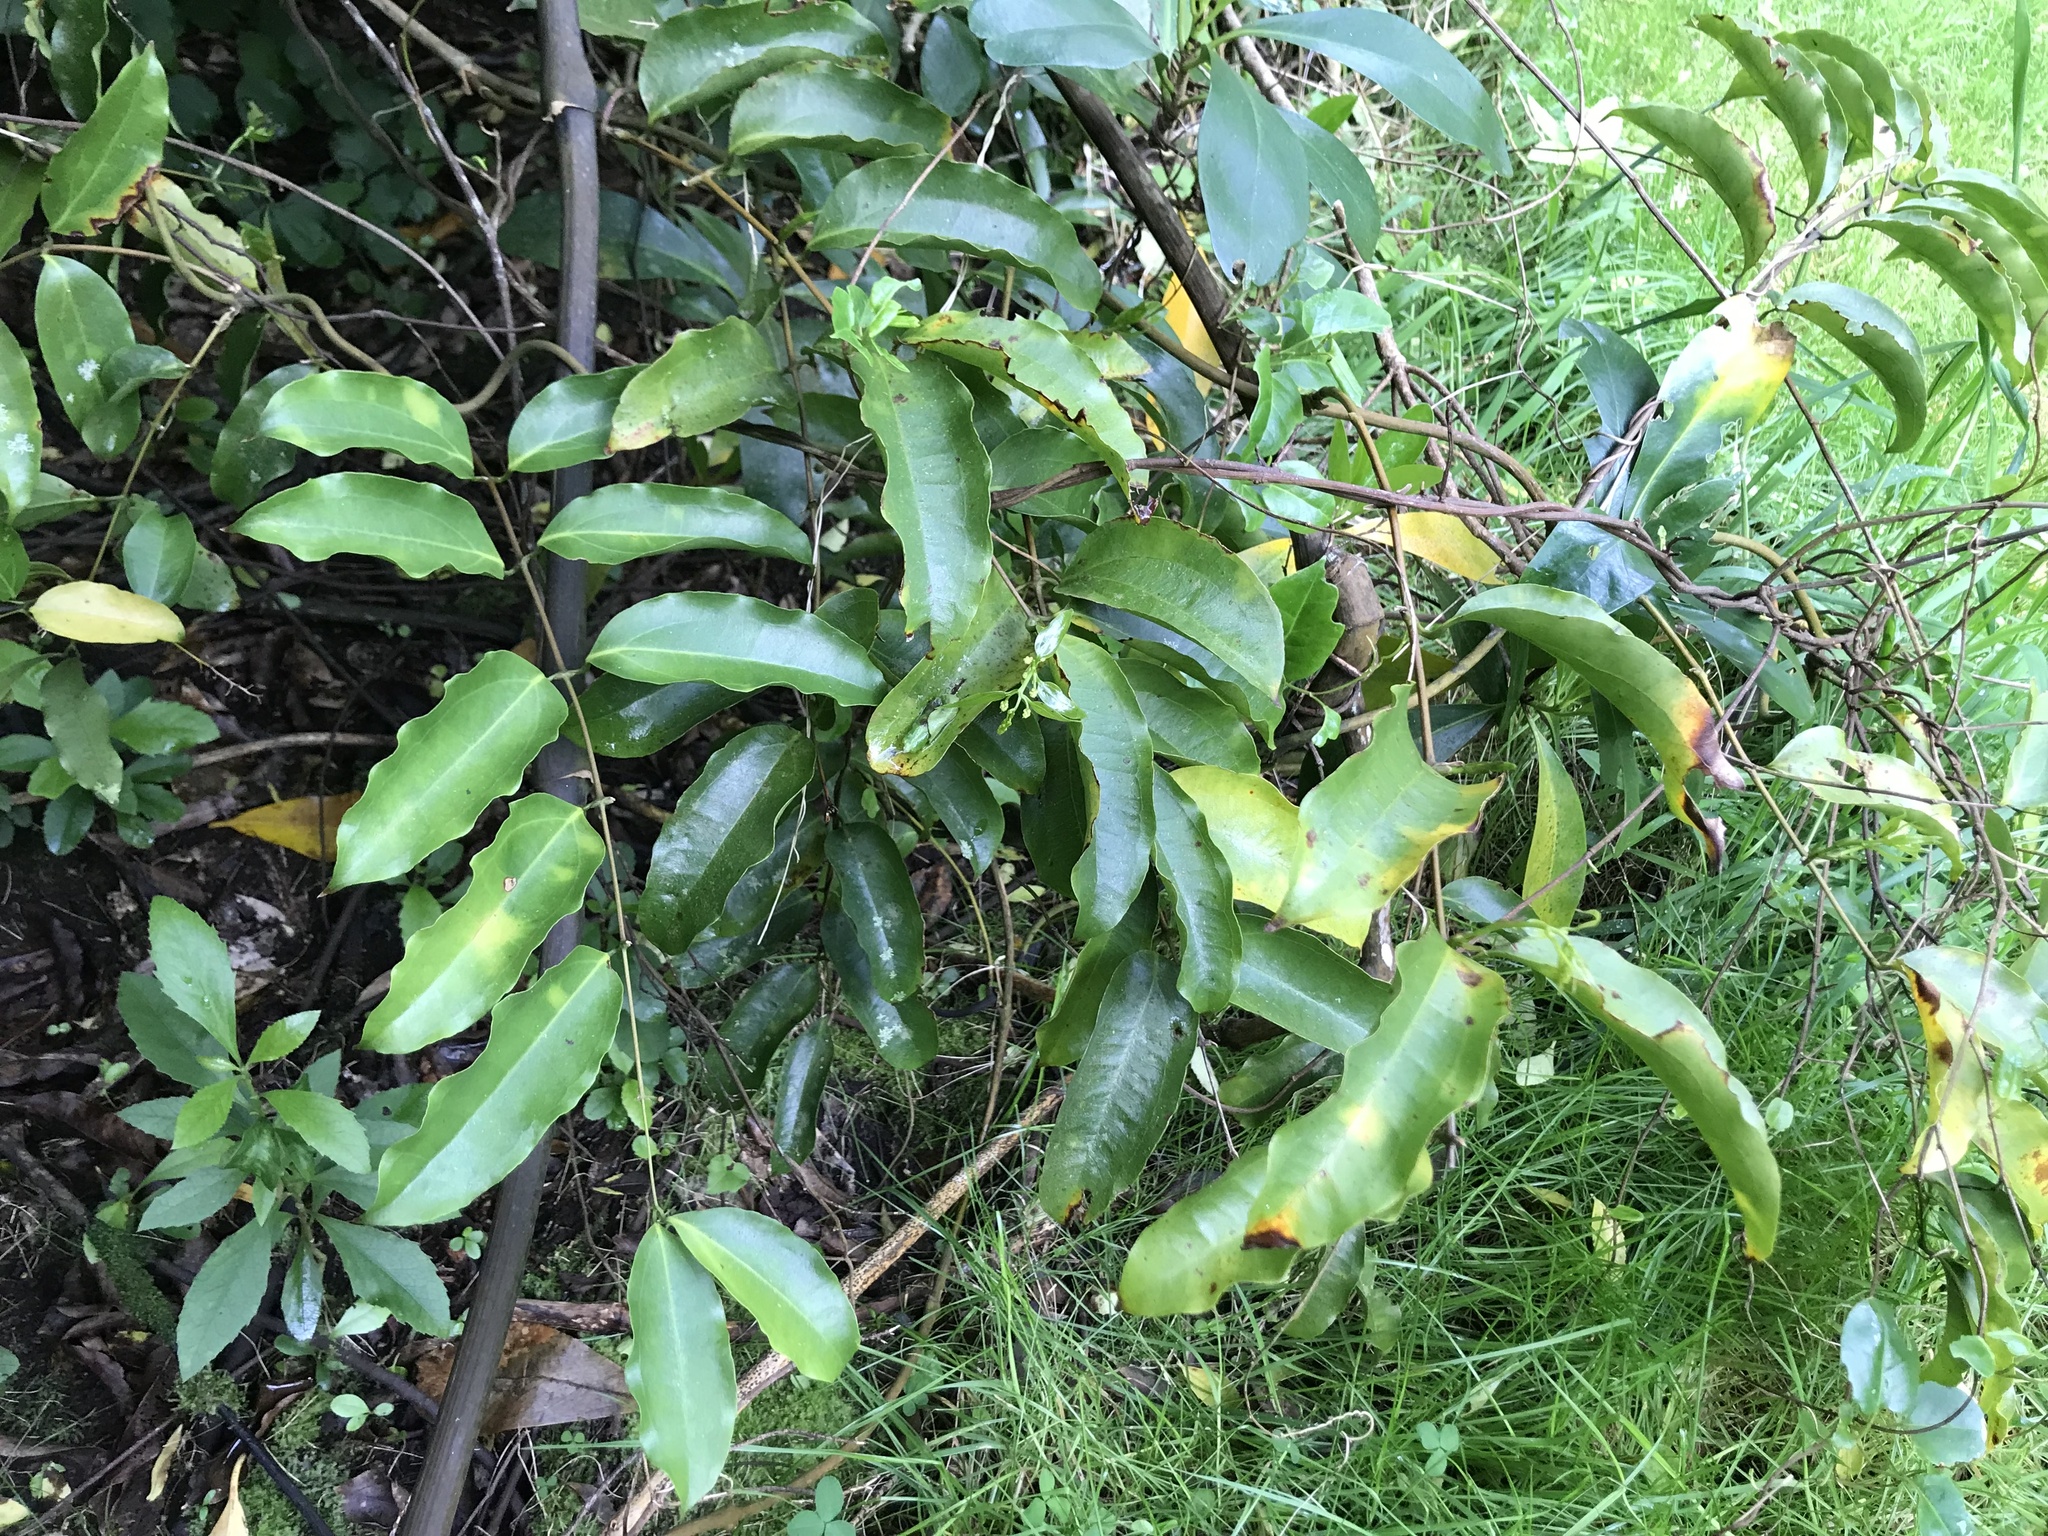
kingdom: Plantae
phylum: Tracheophyta
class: Liliopsida
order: Liliales
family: Ripogonaceae
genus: Ripogonum
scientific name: Ripogonum scandens
